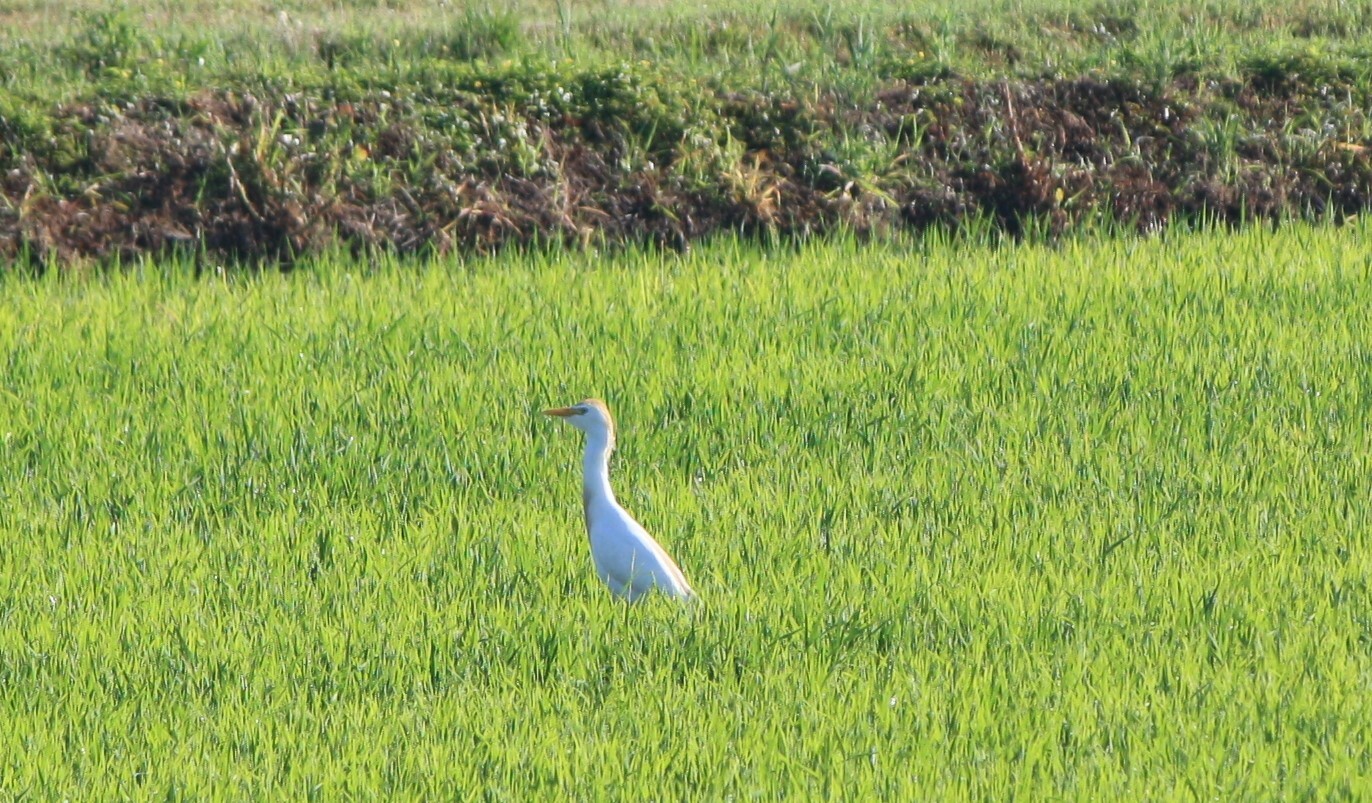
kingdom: Animalia
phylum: Chordata
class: Aves
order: Pelecaniformes
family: Ardeidae
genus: Bubulcus
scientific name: Bubulcus ibis
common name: Cattle egret
